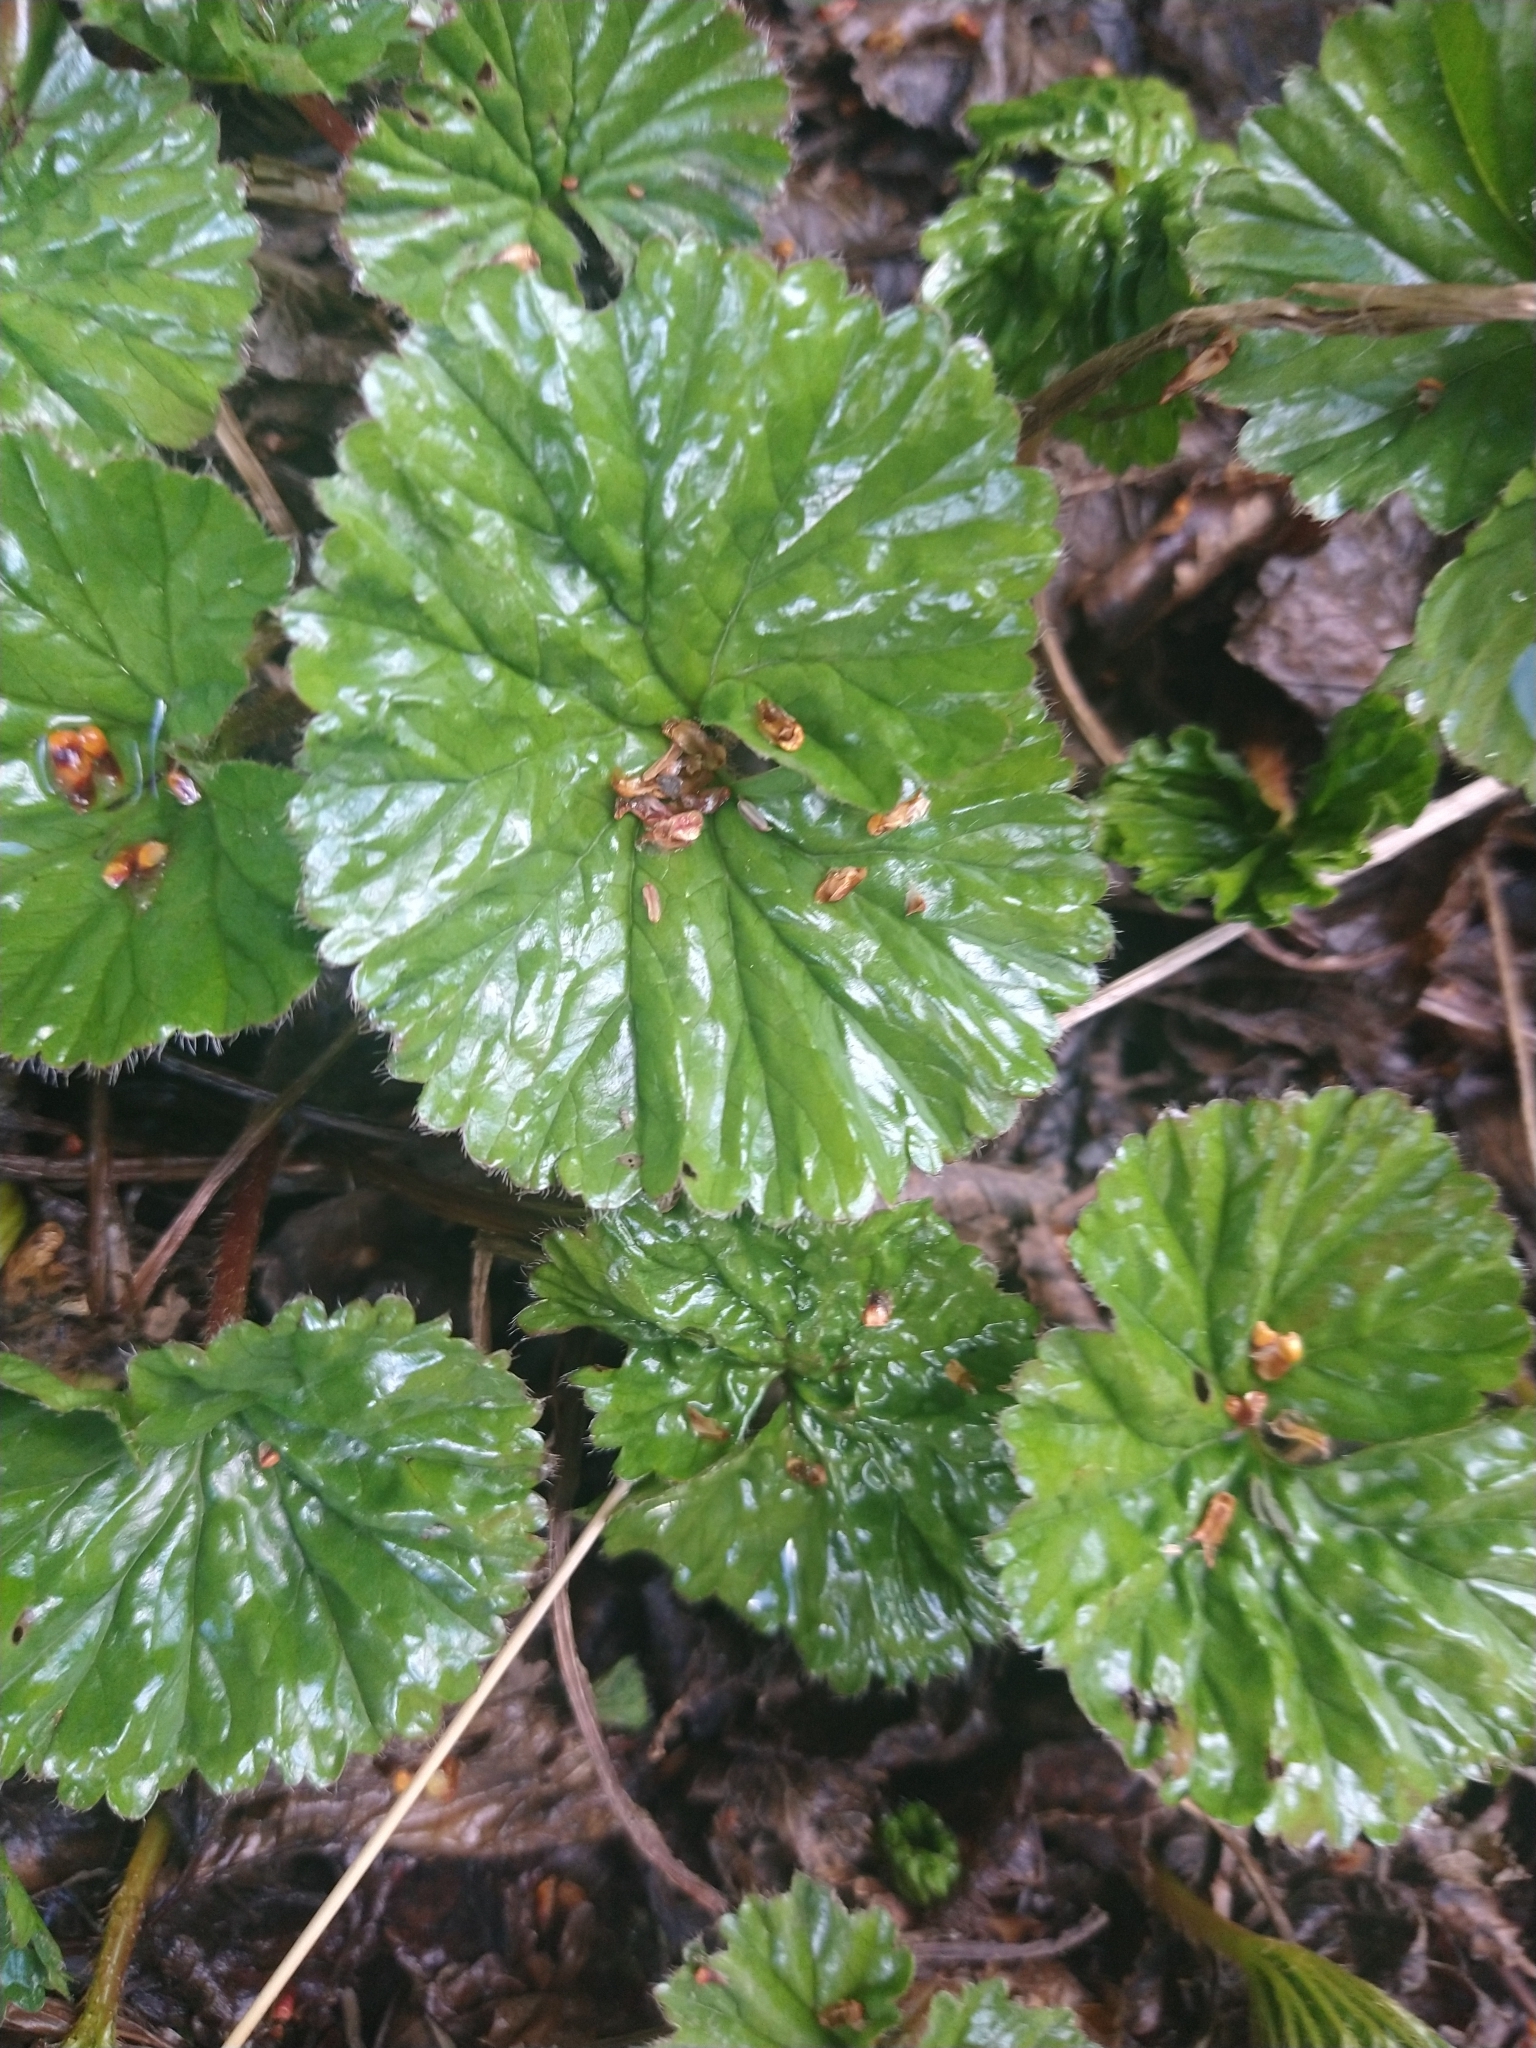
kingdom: Plantae
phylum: Tracheophyta
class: Magnoliopsida
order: Gunnerales
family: Gunneraceae
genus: Gunnera
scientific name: Gunnera magellanica
